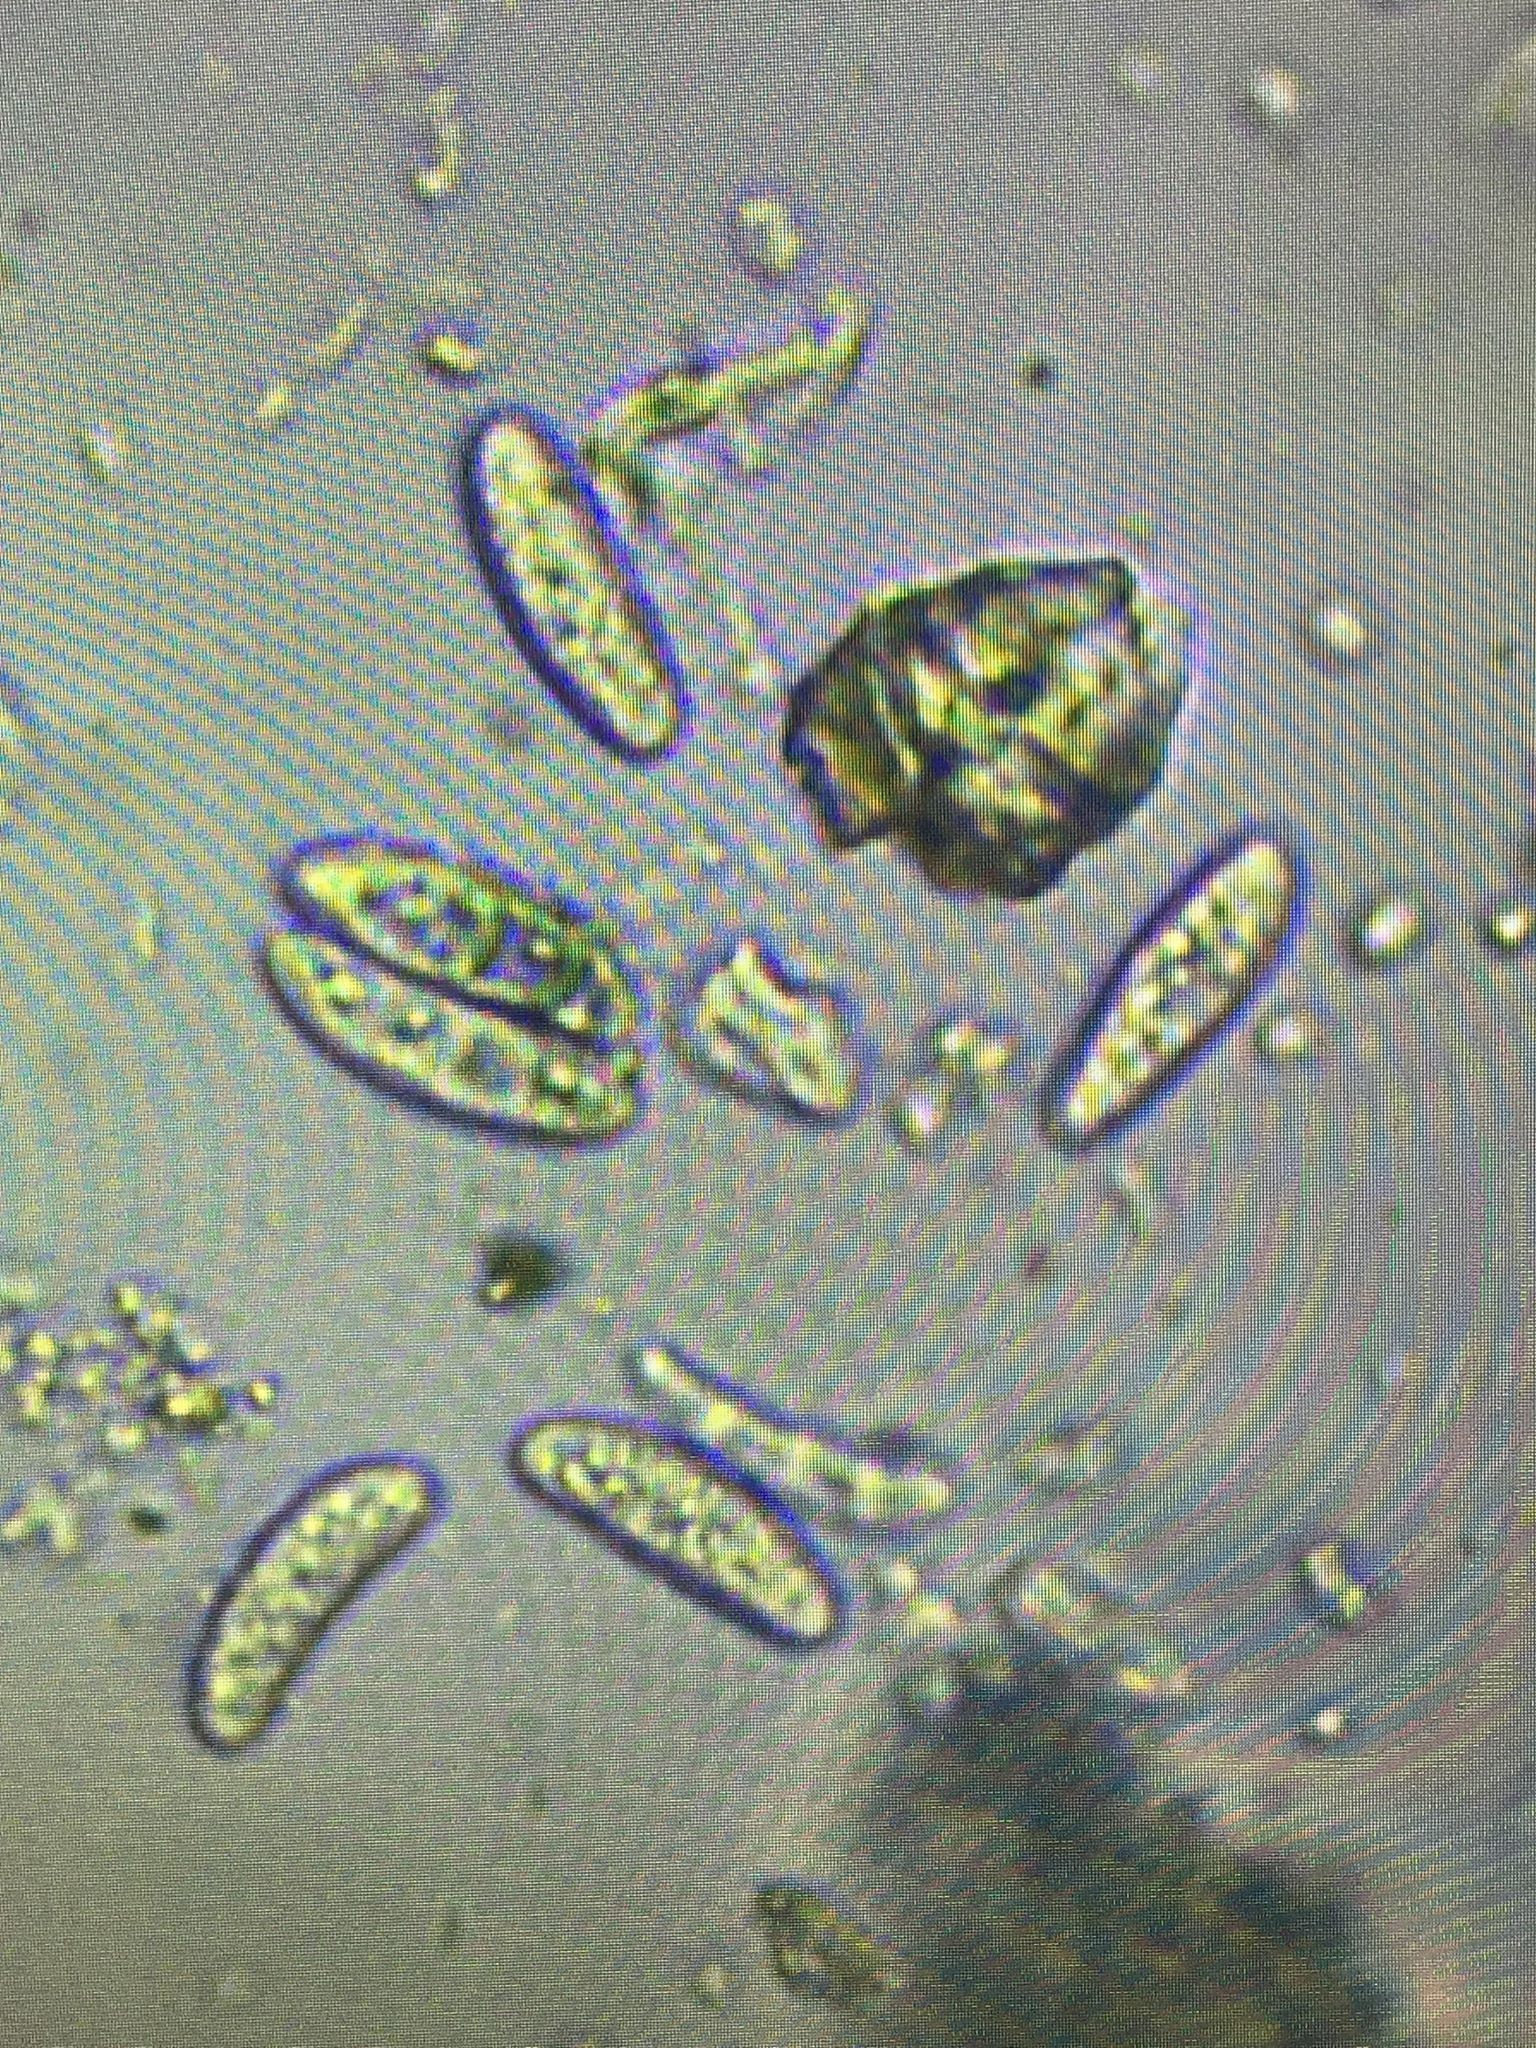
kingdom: Fungi
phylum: Ascomycota
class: Lecanoromycetes
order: Lecanorales
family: Ramalinaceae
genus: Lecania
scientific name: Lecania naegelii
